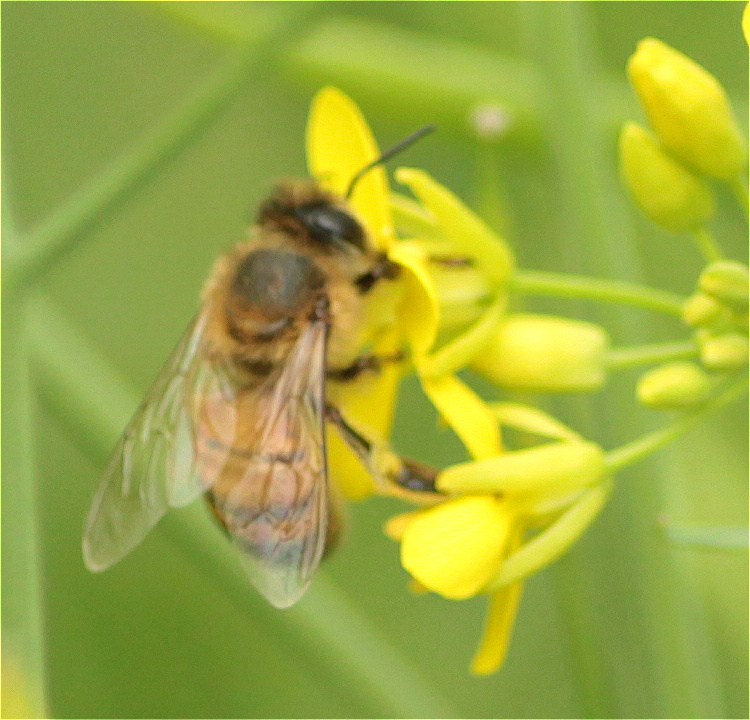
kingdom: Animalia
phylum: Arthropoda
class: Insecta
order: Hymenoptera
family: Apidae
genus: Apis
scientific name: Apis mellifera
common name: Honey bee
